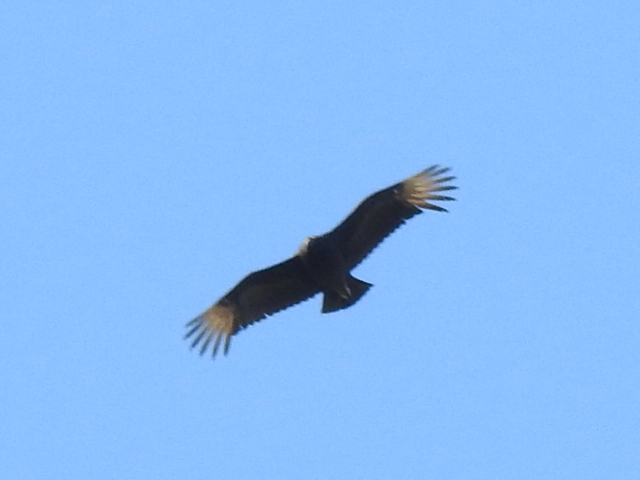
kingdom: Animalia
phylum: Chordata
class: Aves
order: Accipitriformes
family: Cathartidae
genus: Coragyps
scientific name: Coragyps atratus
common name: Black vulture
